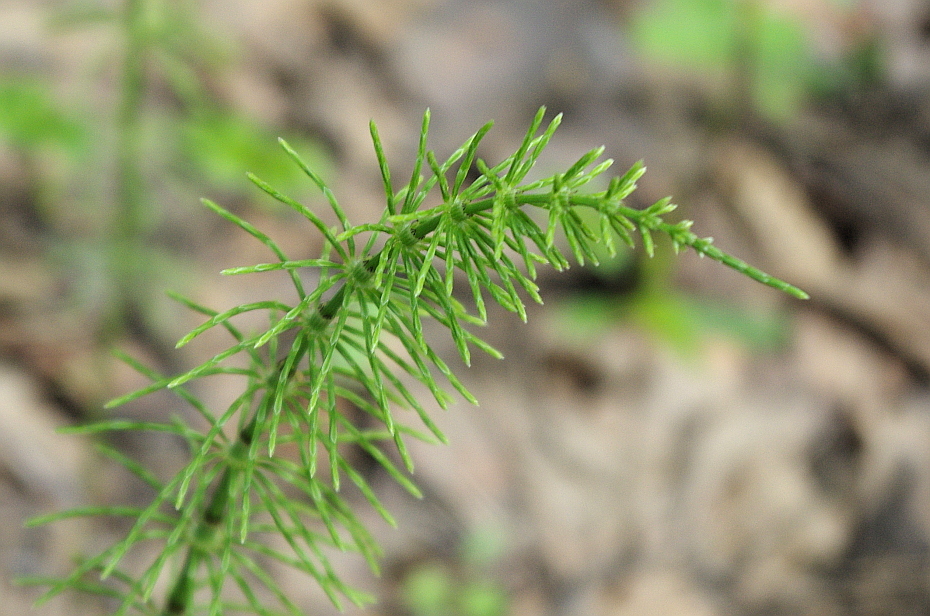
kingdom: Plantae
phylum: Tracheophyta
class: Polypodiopsida
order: Equisetales
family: Equisetaceae
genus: Equisetum
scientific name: Equisetum arvense
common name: Field horsetail
